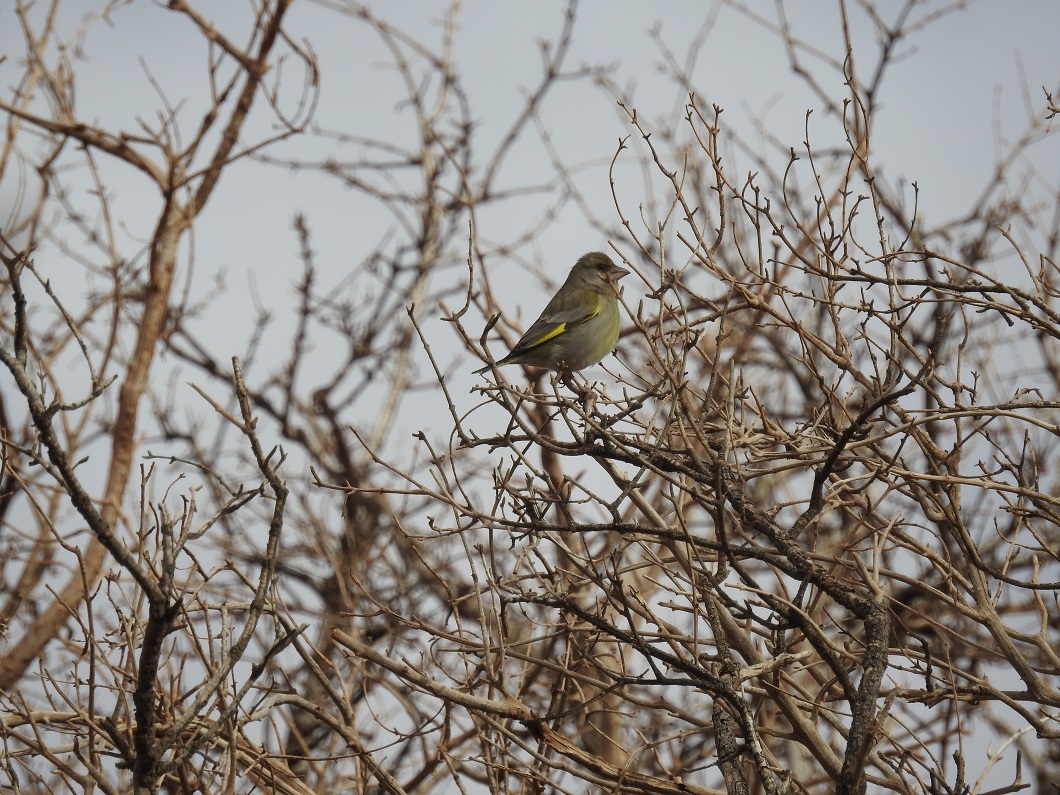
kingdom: Plantae
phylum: Tracheophyta
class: Liliopsida
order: Poales
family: Poaceae
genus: Chloris
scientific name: Chloris chloris
